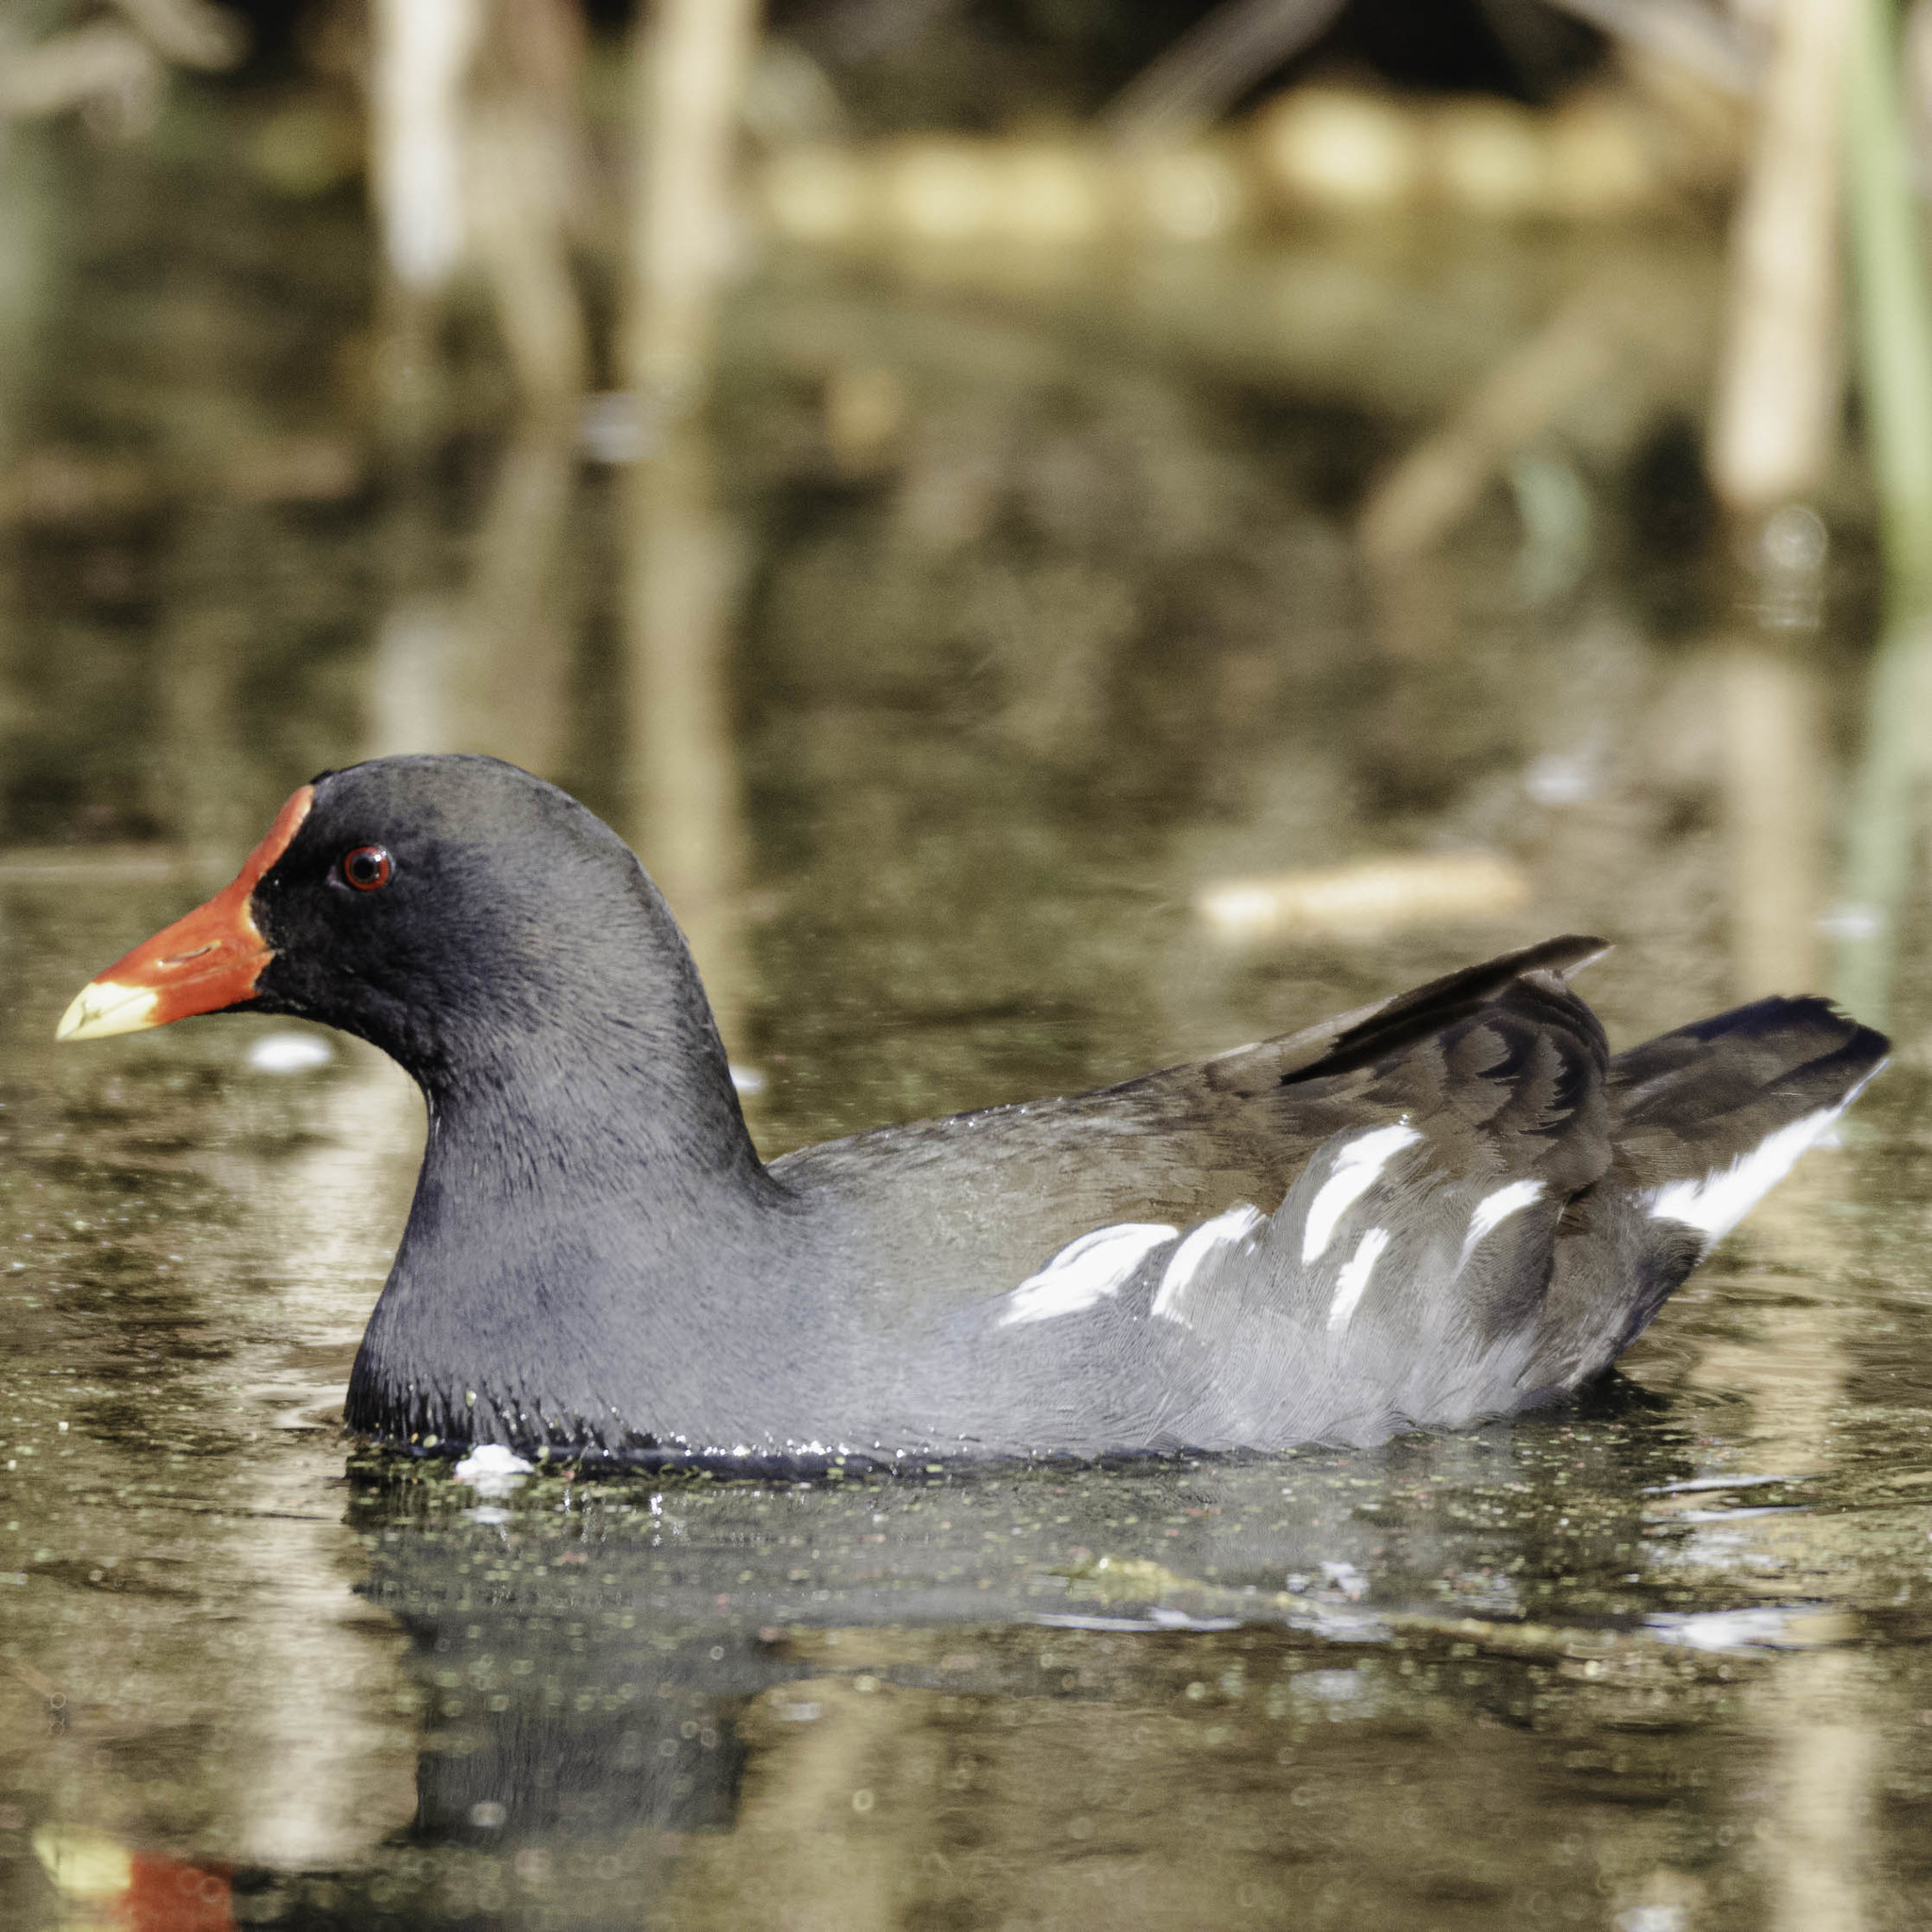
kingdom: Animalia
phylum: Chordata
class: Aves
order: Gruiformes
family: Rallidae
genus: Gallinula
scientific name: Gallinula chloropus
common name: Common moorhen
